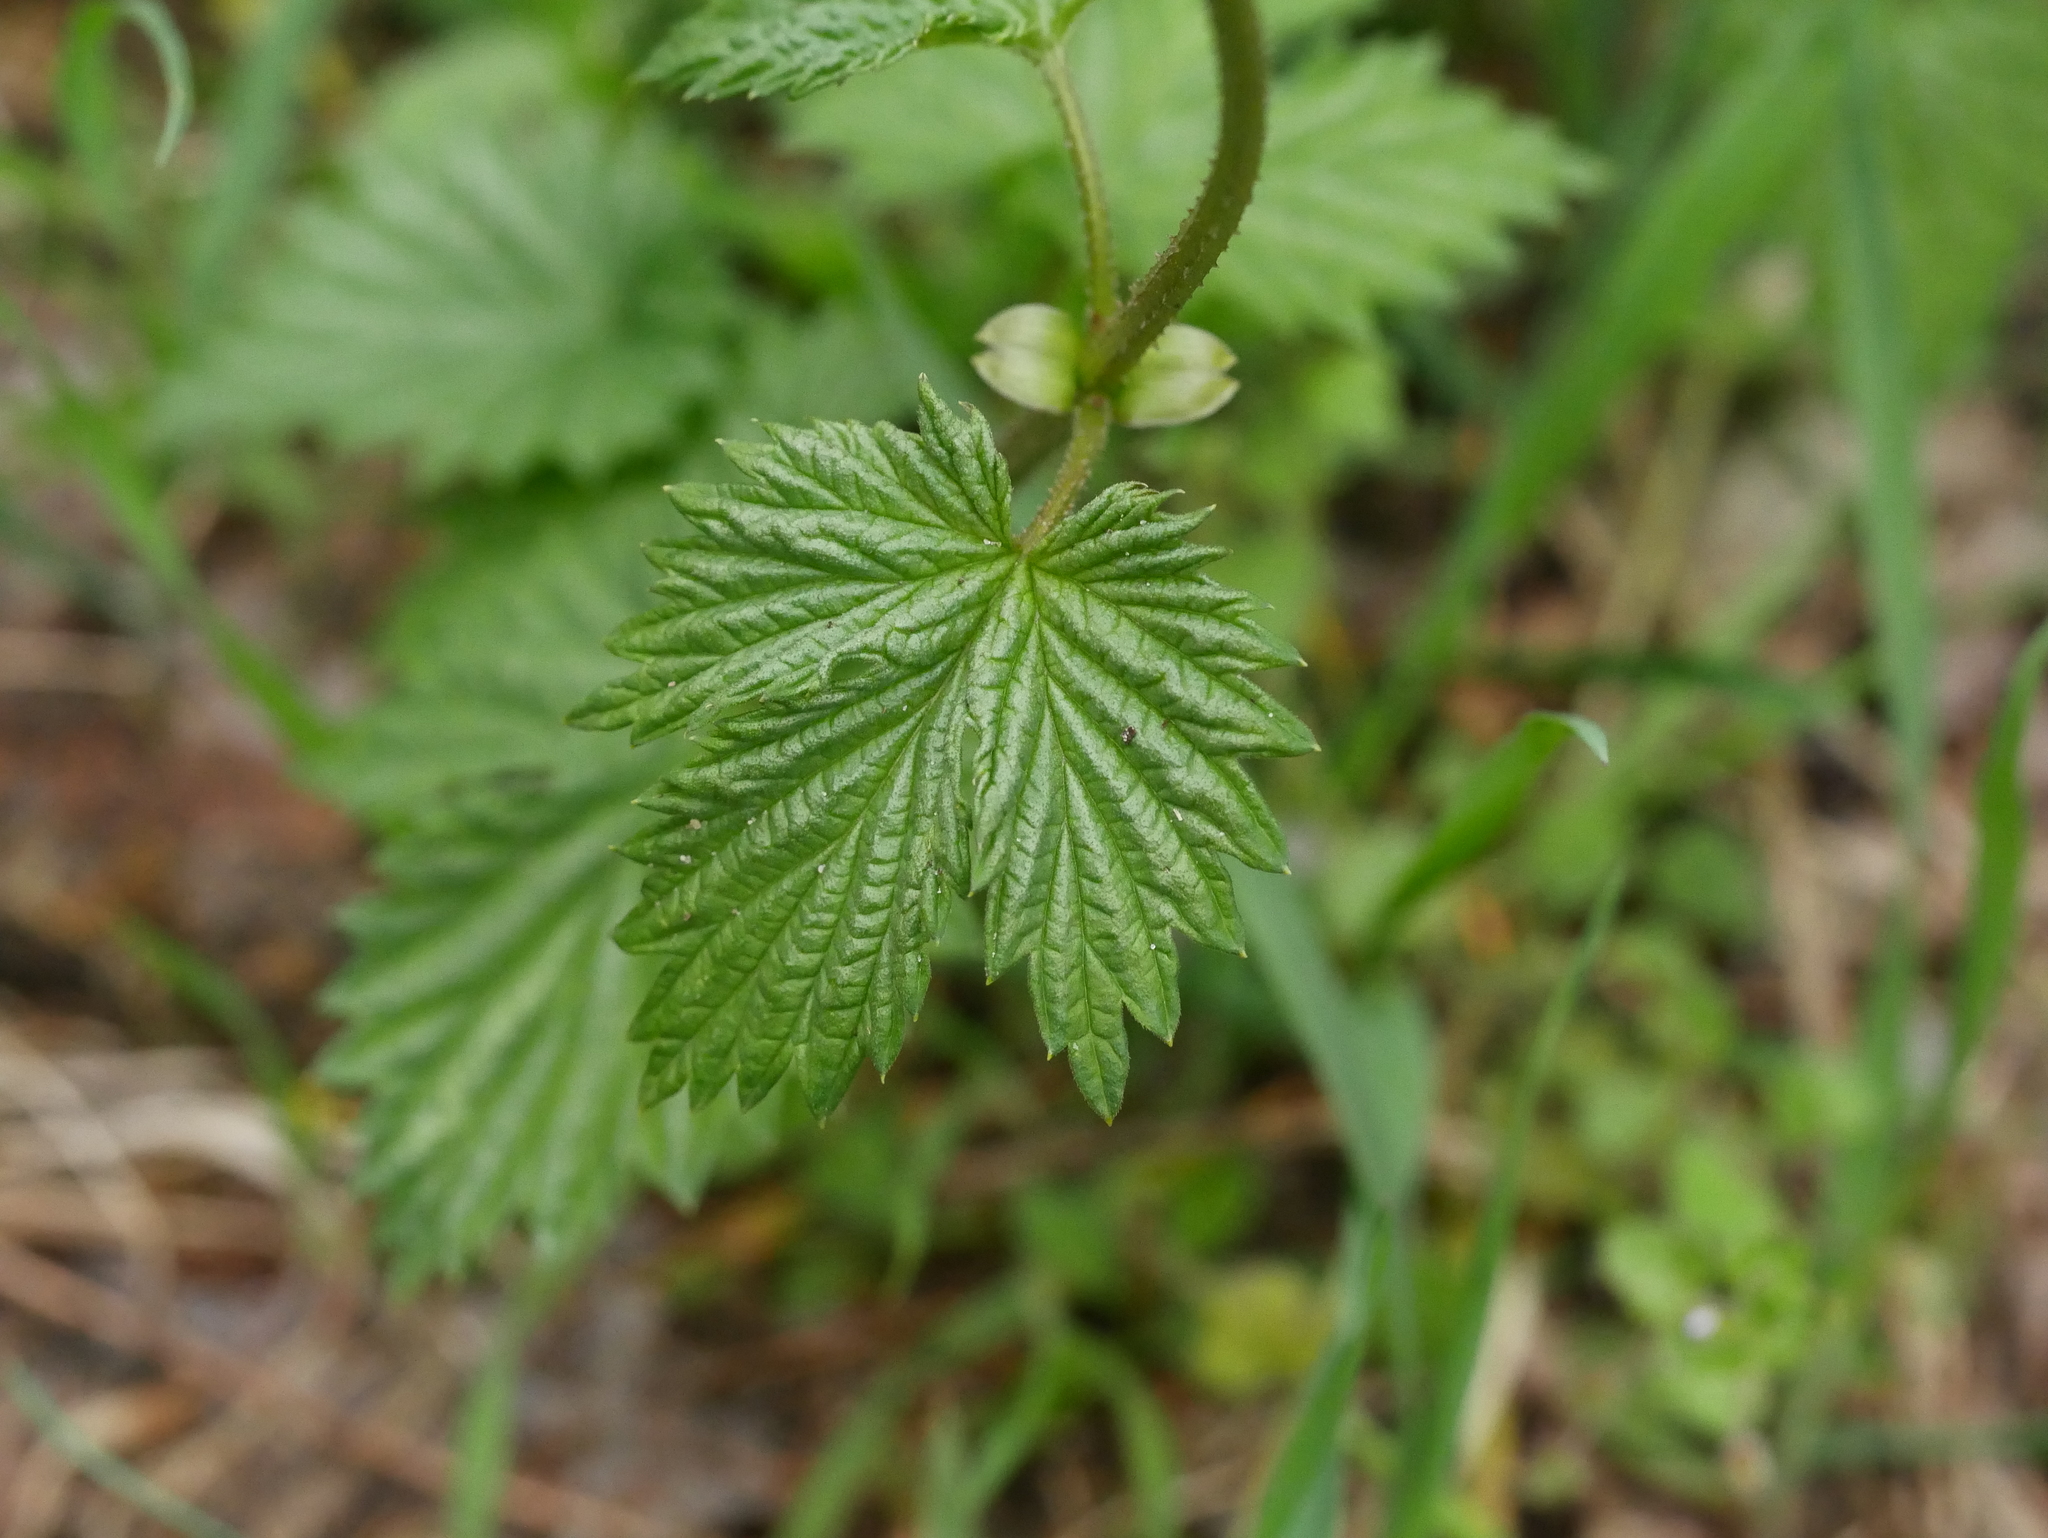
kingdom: Plantae
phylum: Tracheophyta
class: Magnoliopsida
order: Rosales
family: Cannabaceae
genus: Humulus
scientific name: Humulus lupulus
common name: Hop
